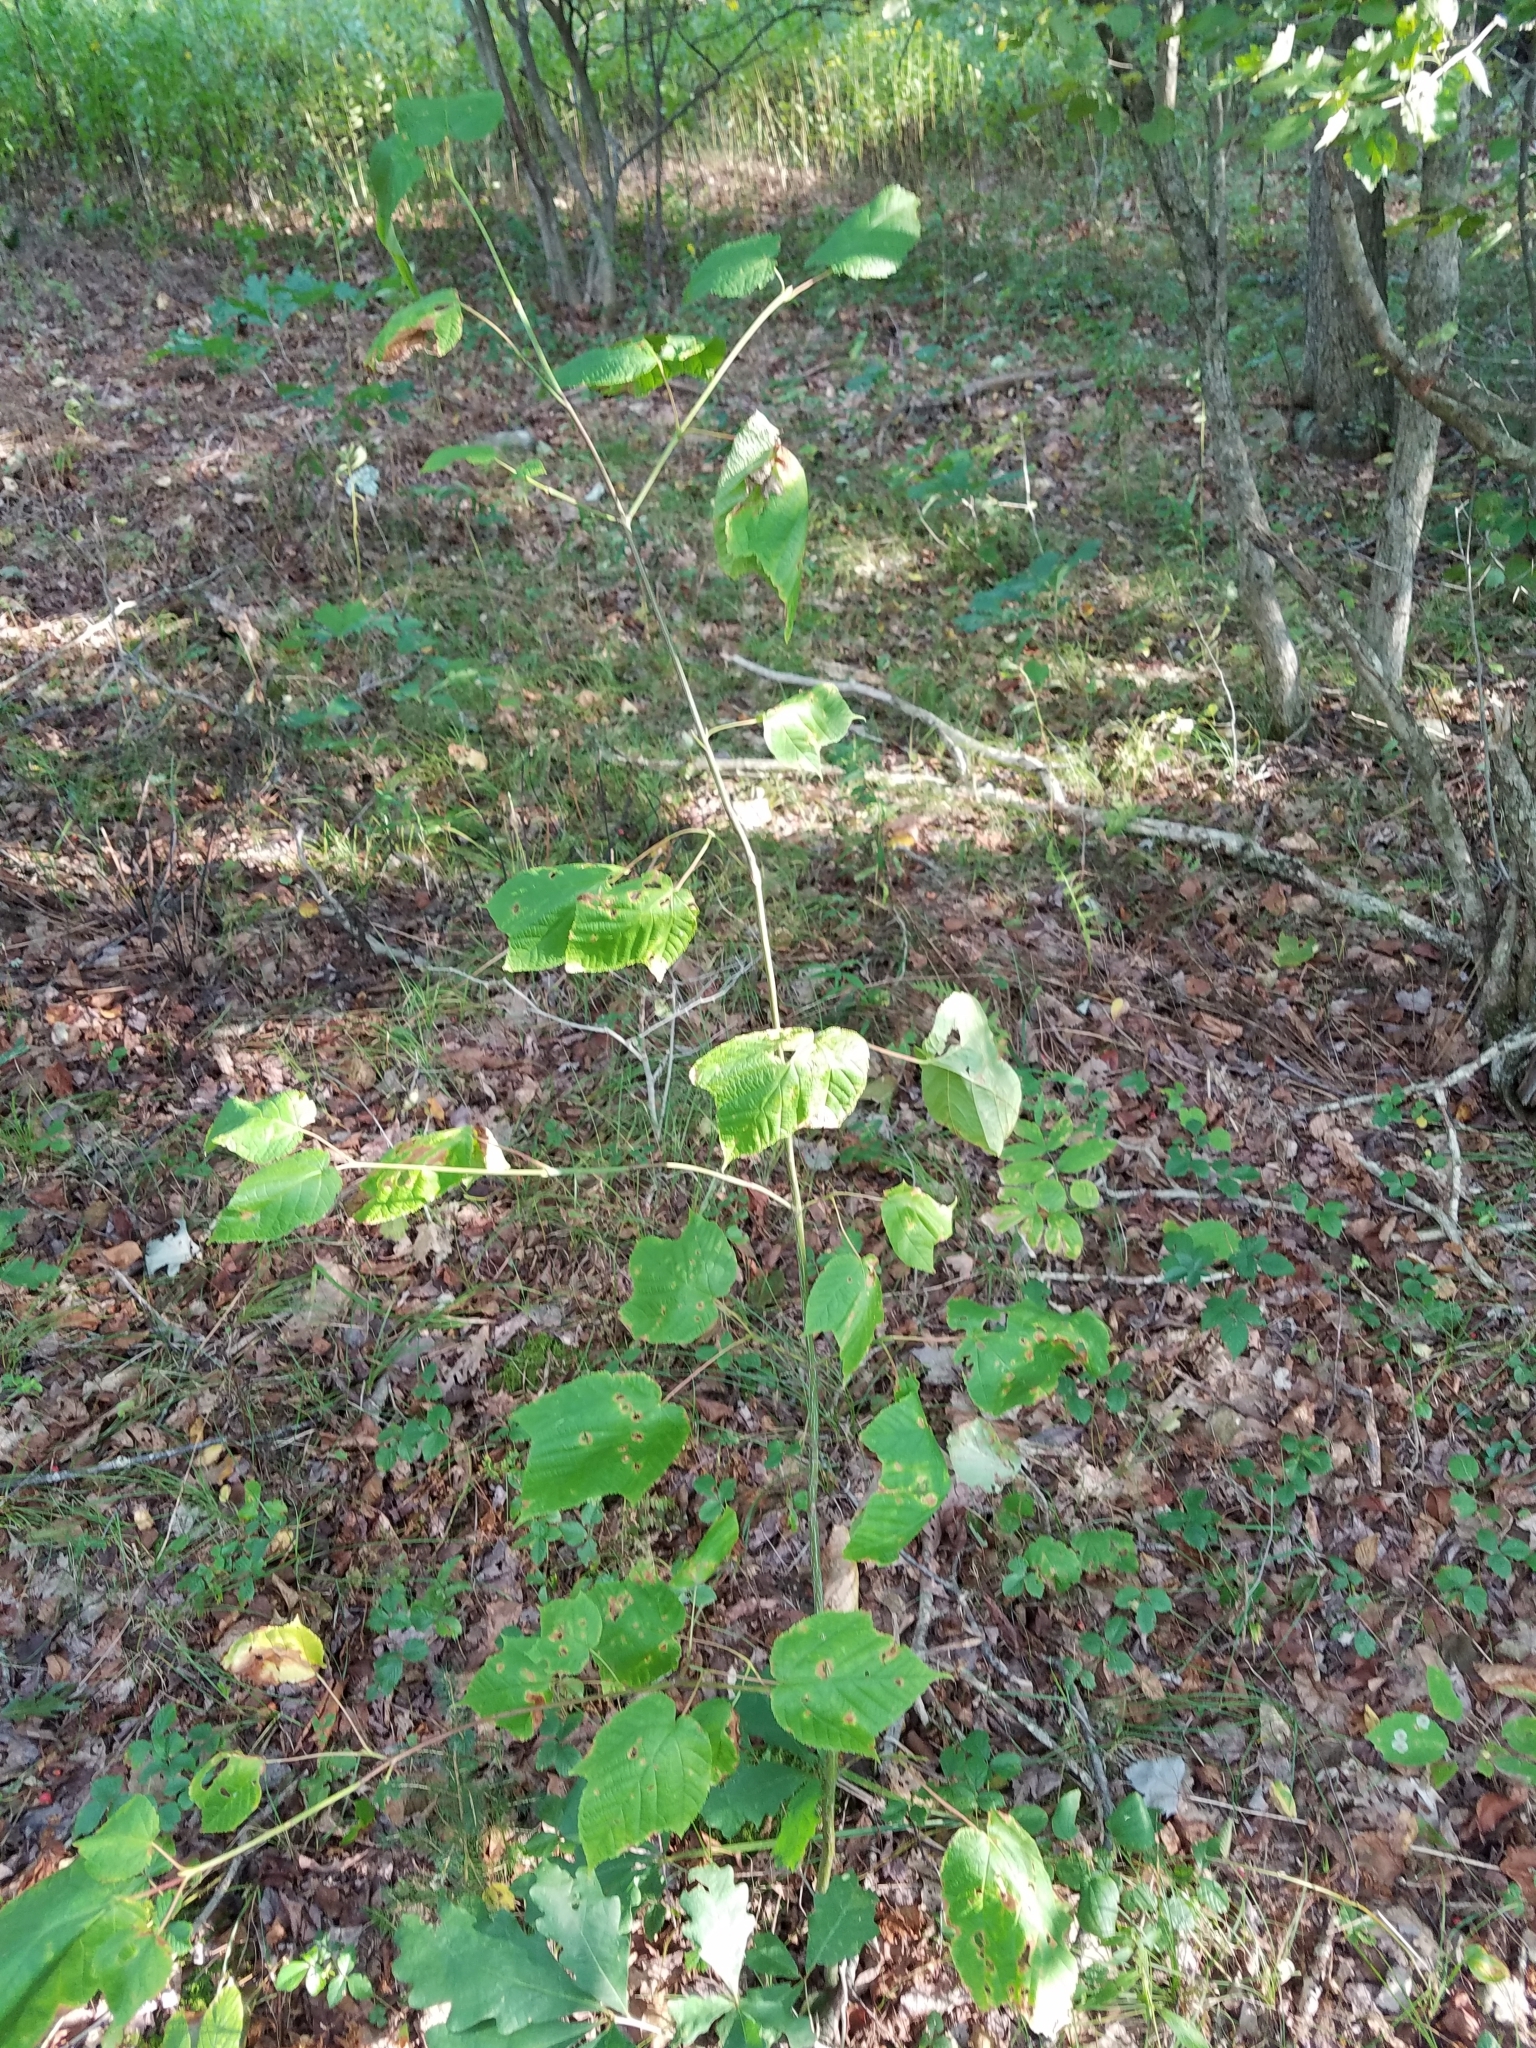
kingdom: Plantae
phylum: Tracheophyta
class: Magnoliopsida
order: Sapindales
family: Sapindaceae
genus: Acer
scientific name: Acer pensylvanicum
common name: Moosewood
